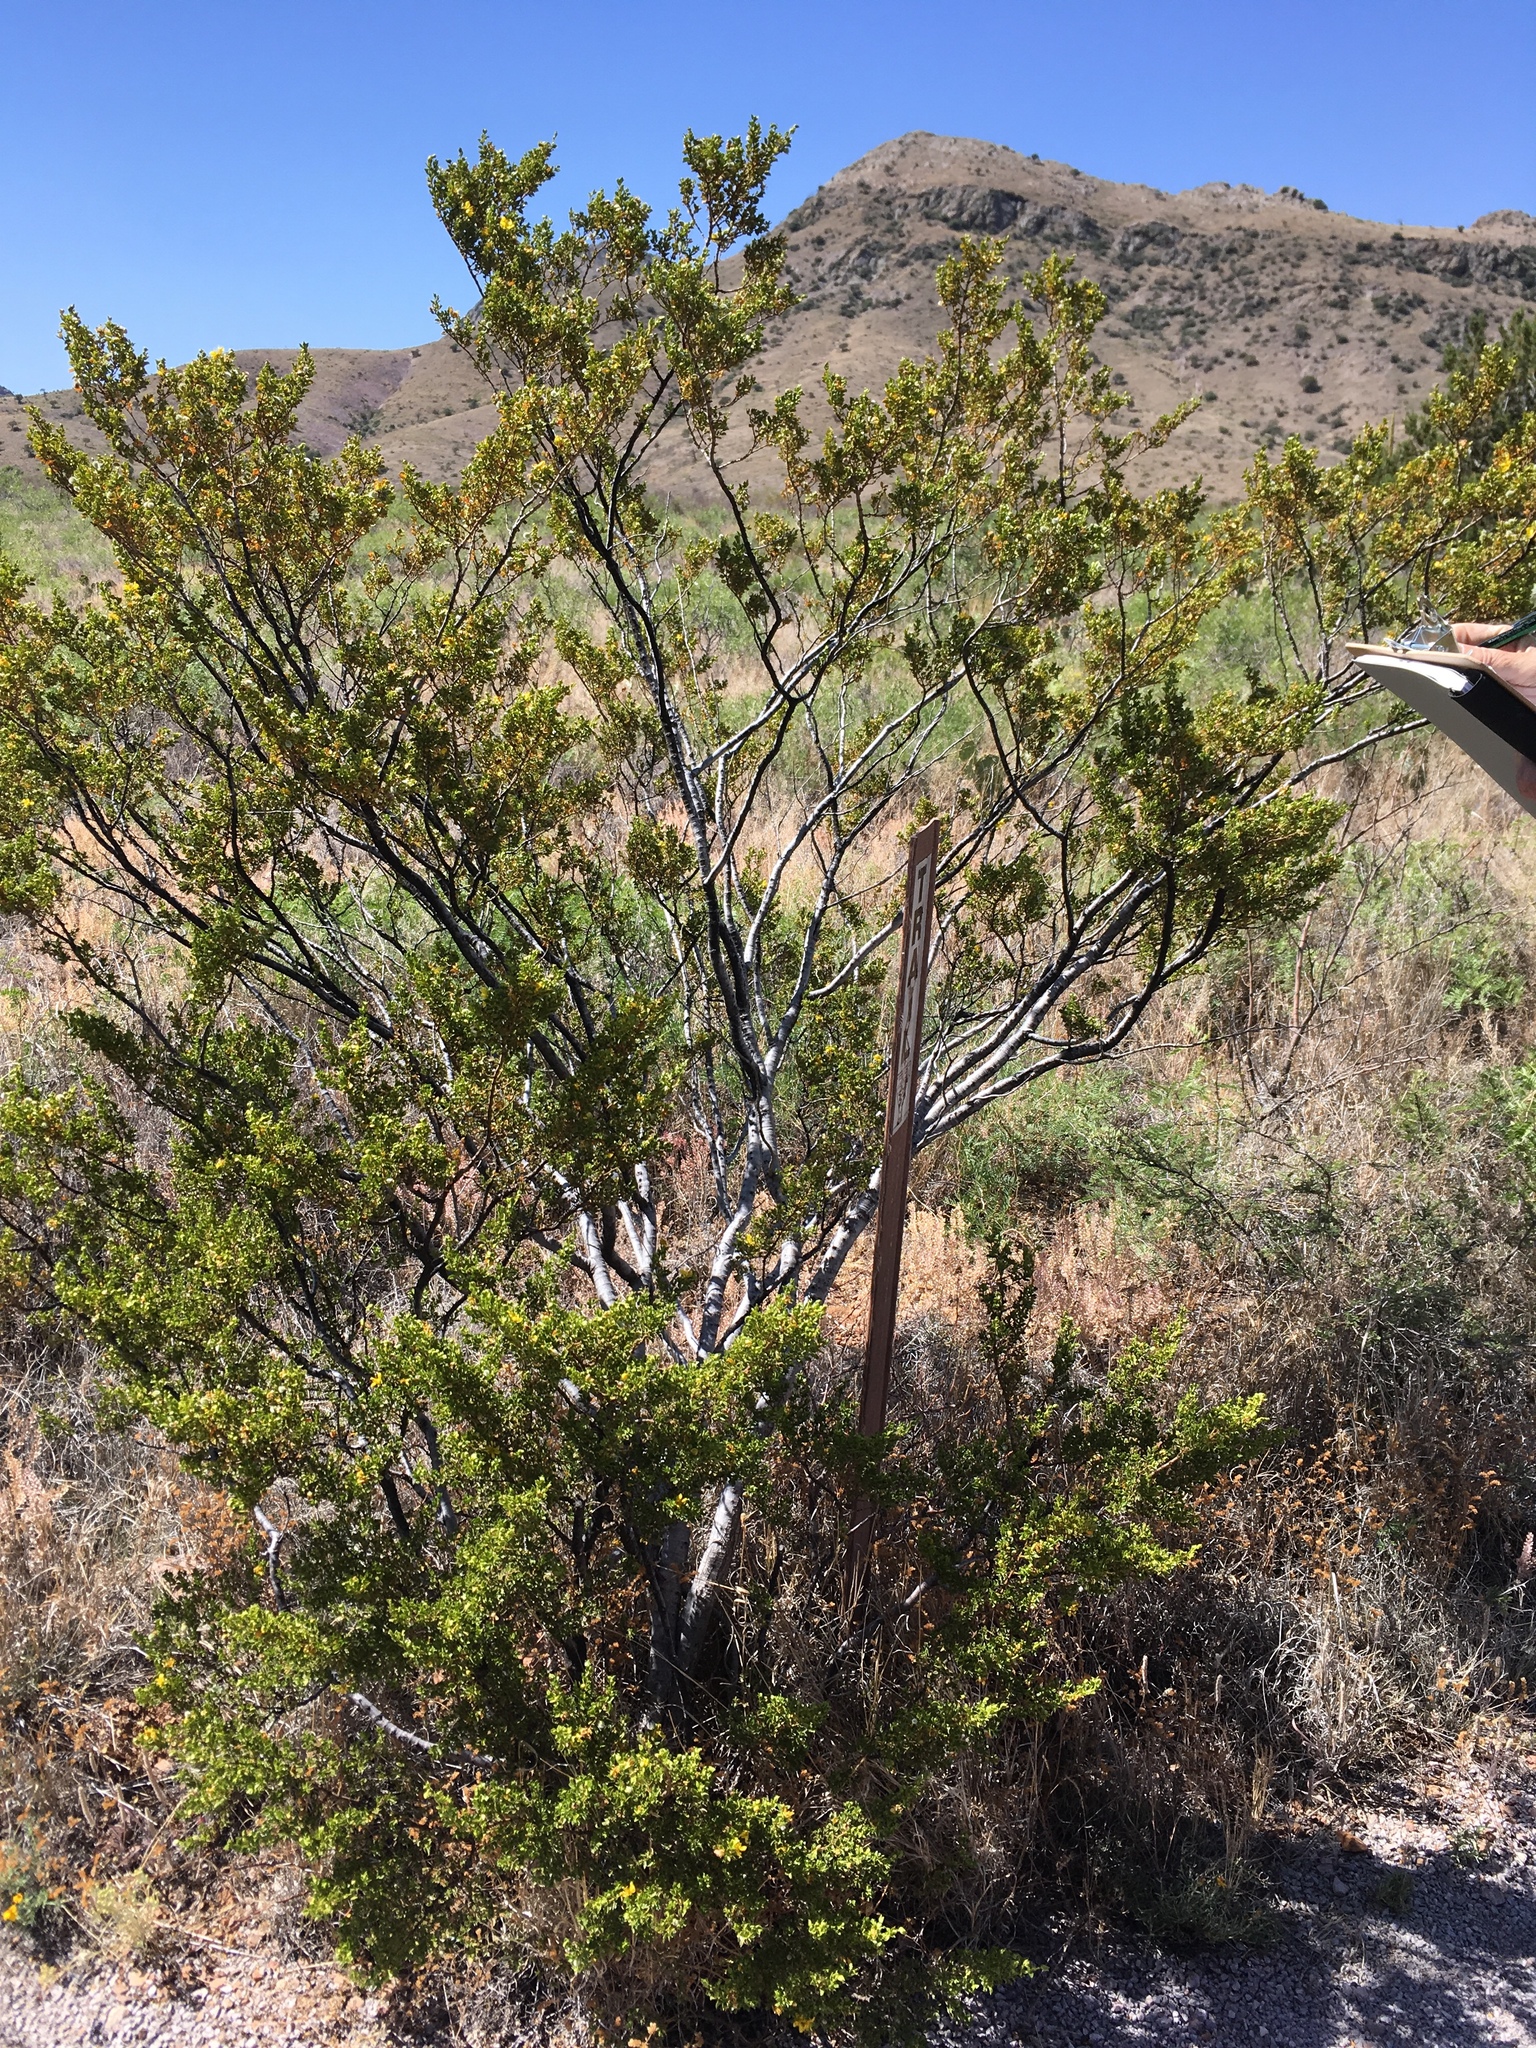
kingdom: Plantae
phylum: Tracheophyta
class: Magnoliopsida
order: Zygophyllales
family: Zygophyllaceae
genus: Larrea
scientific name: Larrea tridentata
